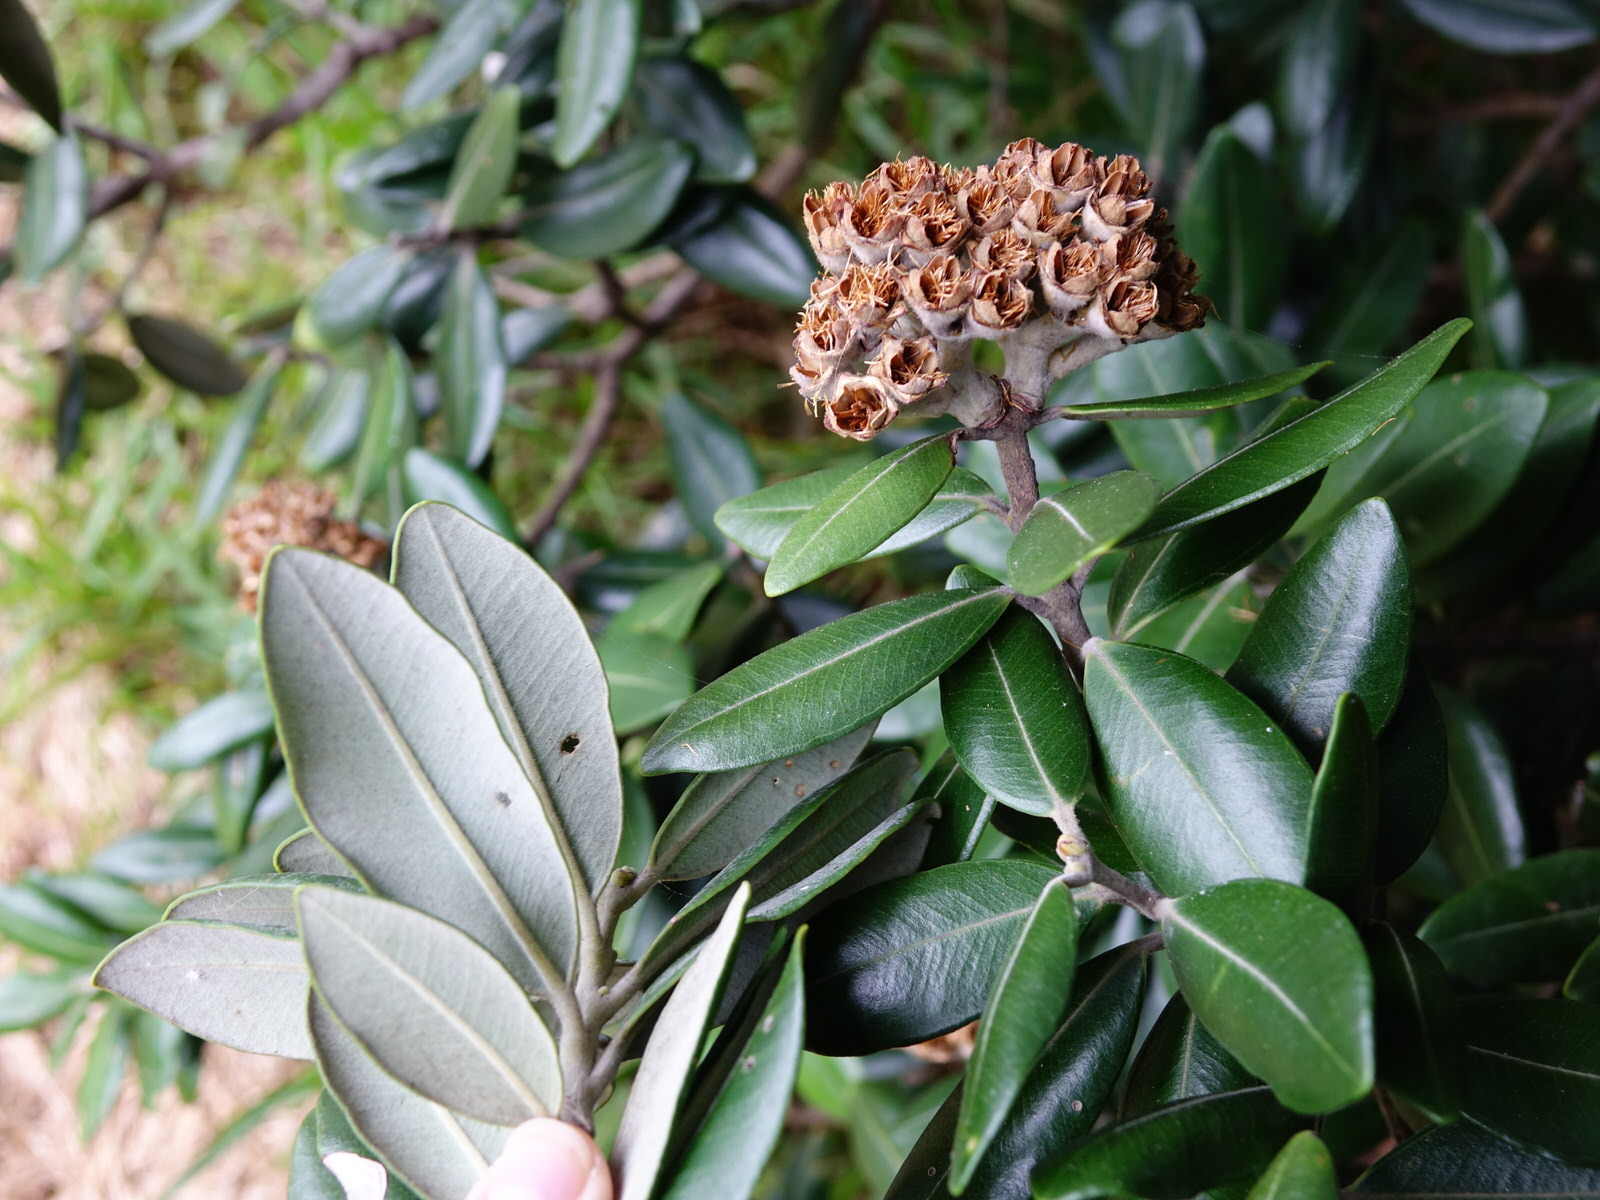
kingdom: Plantae
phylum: Tracheophyta
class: Magnoliopsida
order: Myrtales
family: Myrtaceae
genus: Metrosideros
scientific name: Metrosideros excelsa
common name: New zealand christmastree
